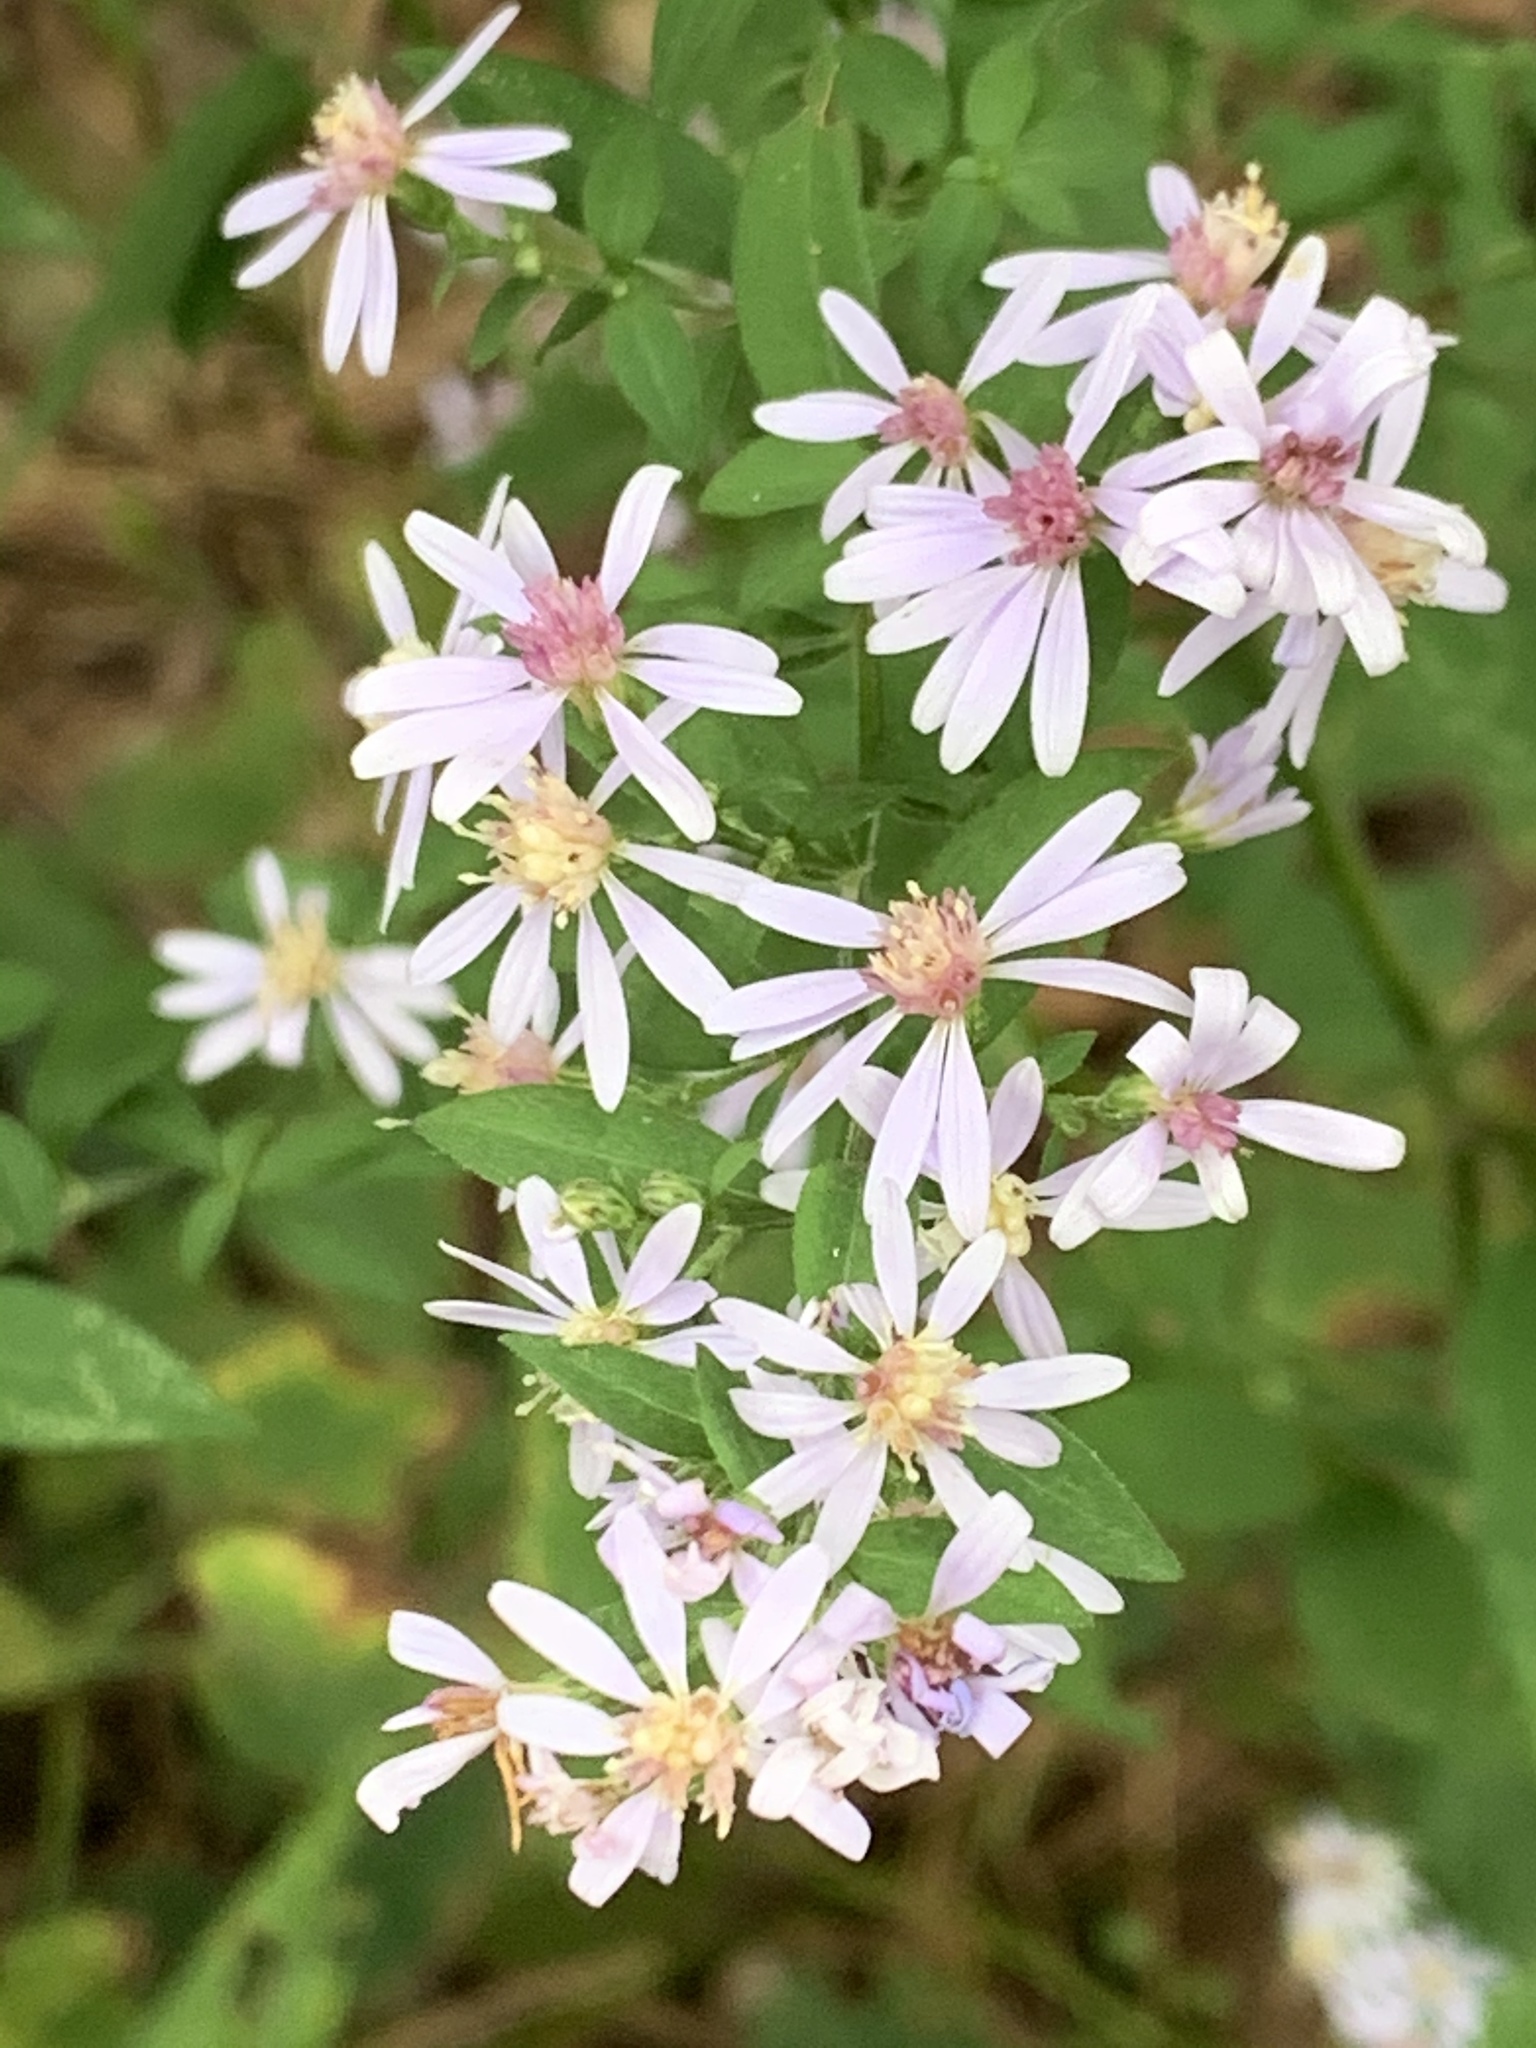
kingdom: Plantae
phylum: Tracheophyta
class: Magnoliopsida
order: Asterales
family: Asteraceae
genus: Symphyotrichum
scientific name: Symphyotrichum cordifolium
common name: Beeweed
